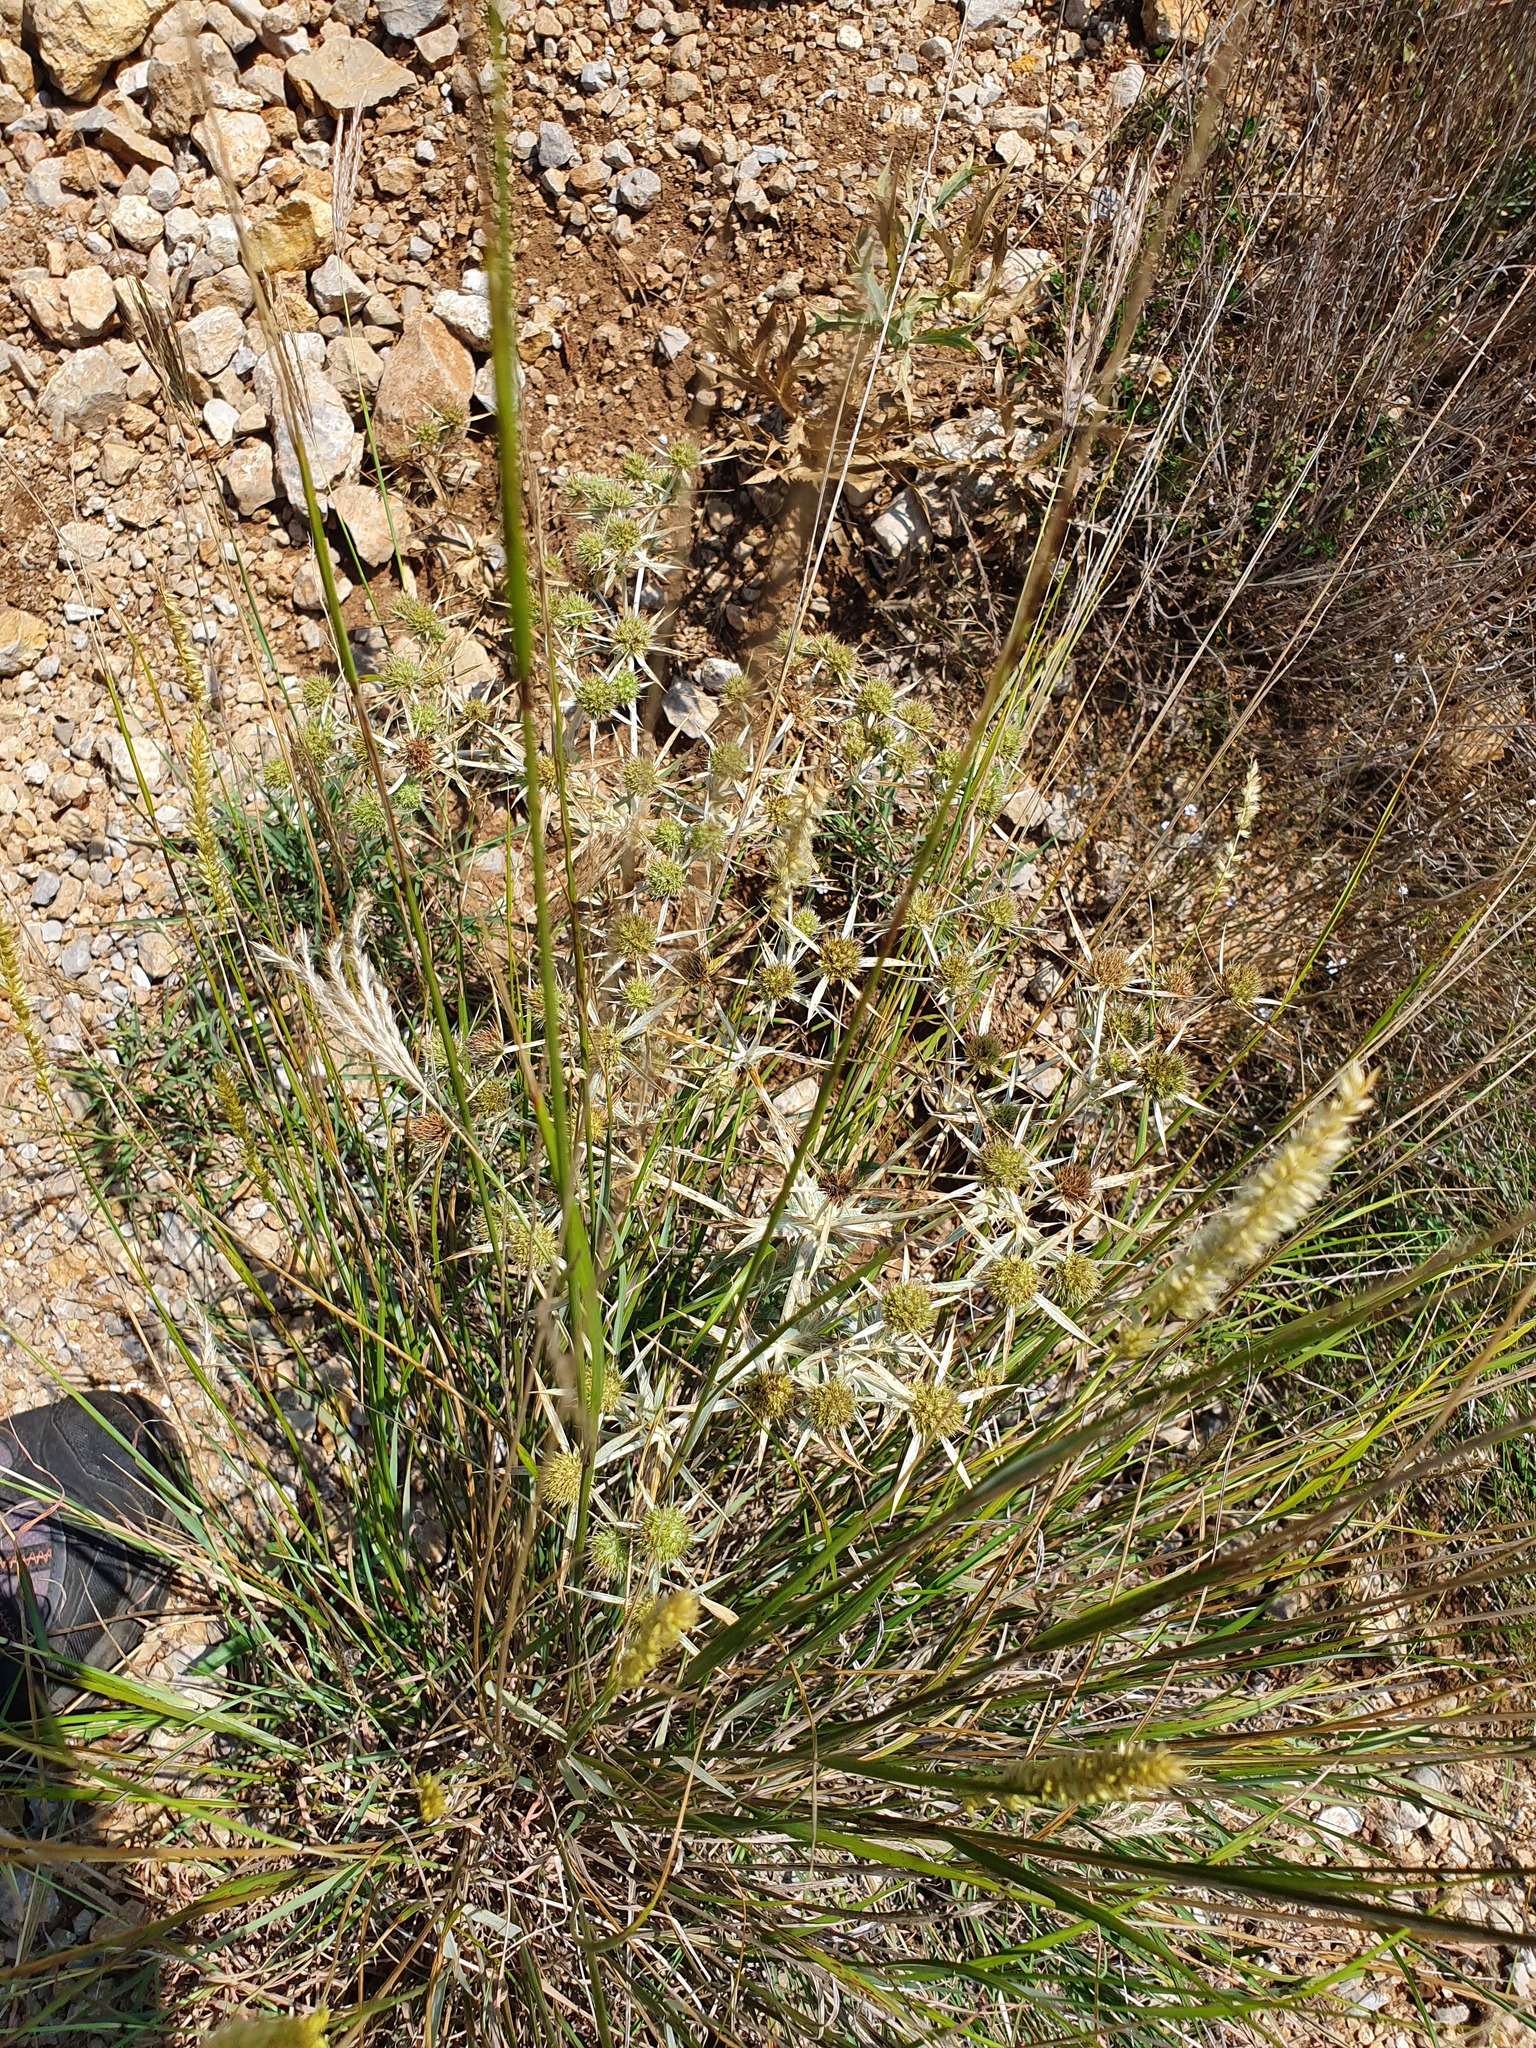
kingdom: Plantae
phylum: Tracheophyta
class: Magnoliopsida
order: Apiales
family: Apiaceae
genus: Eryngium
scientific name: Eryngium campestre
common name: Field eryngo
